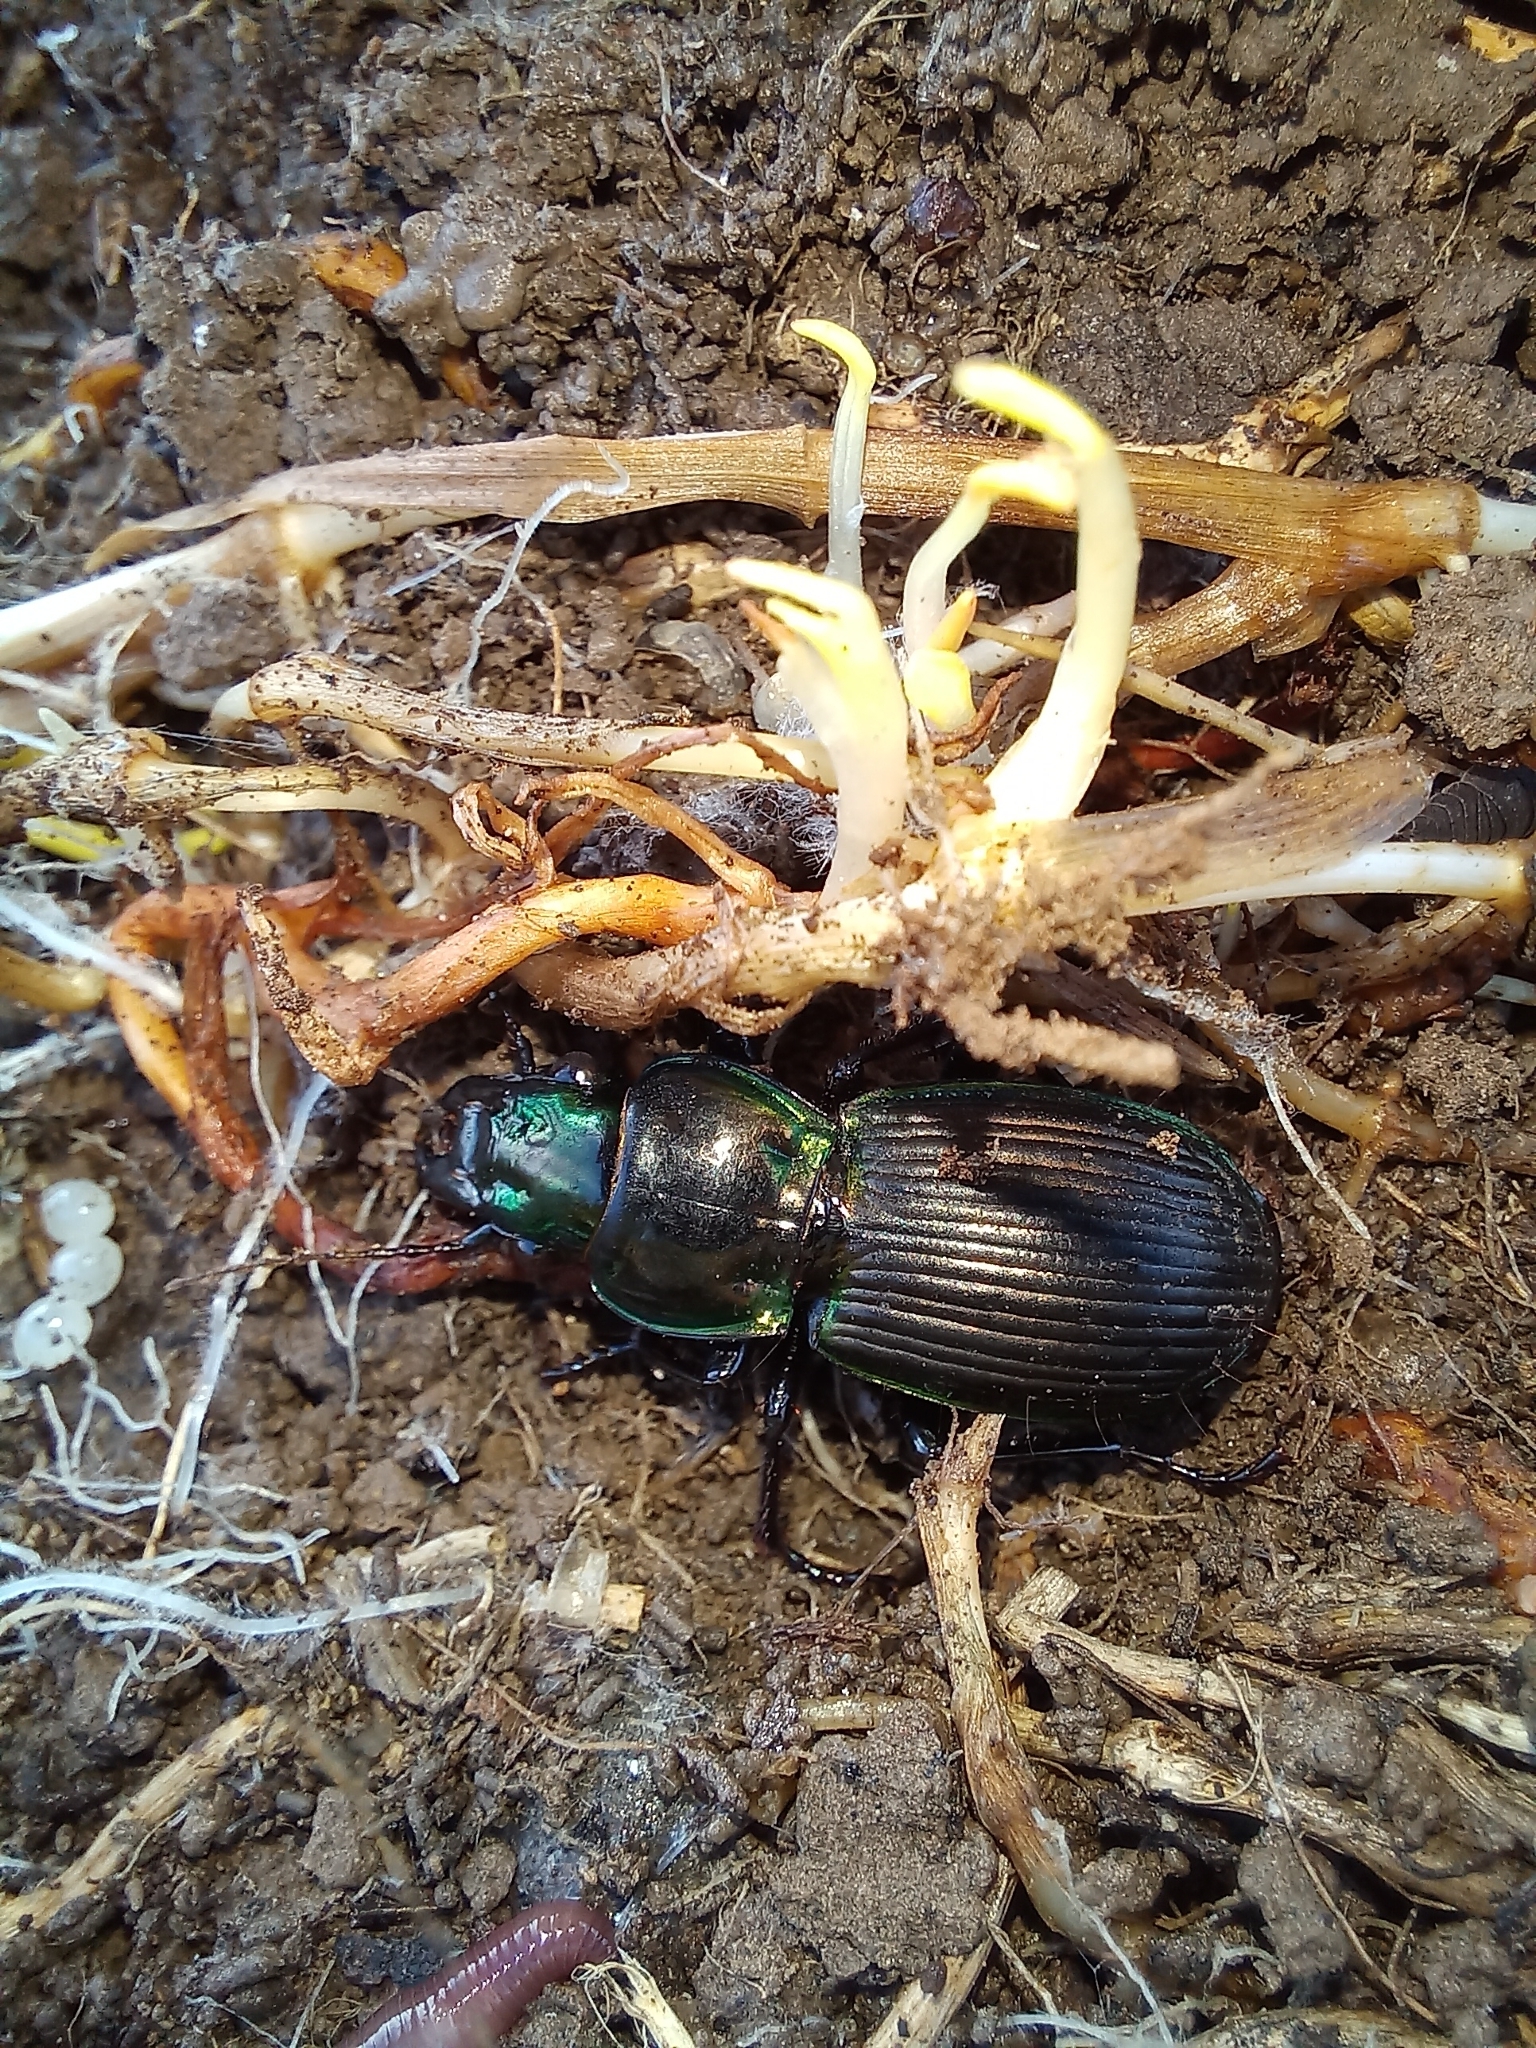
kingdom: Animalia
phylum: Arthropoda
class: Insecta
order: Coleoptera
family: Carabidae
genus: Megadromus
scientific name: Megadromus antarcticus
